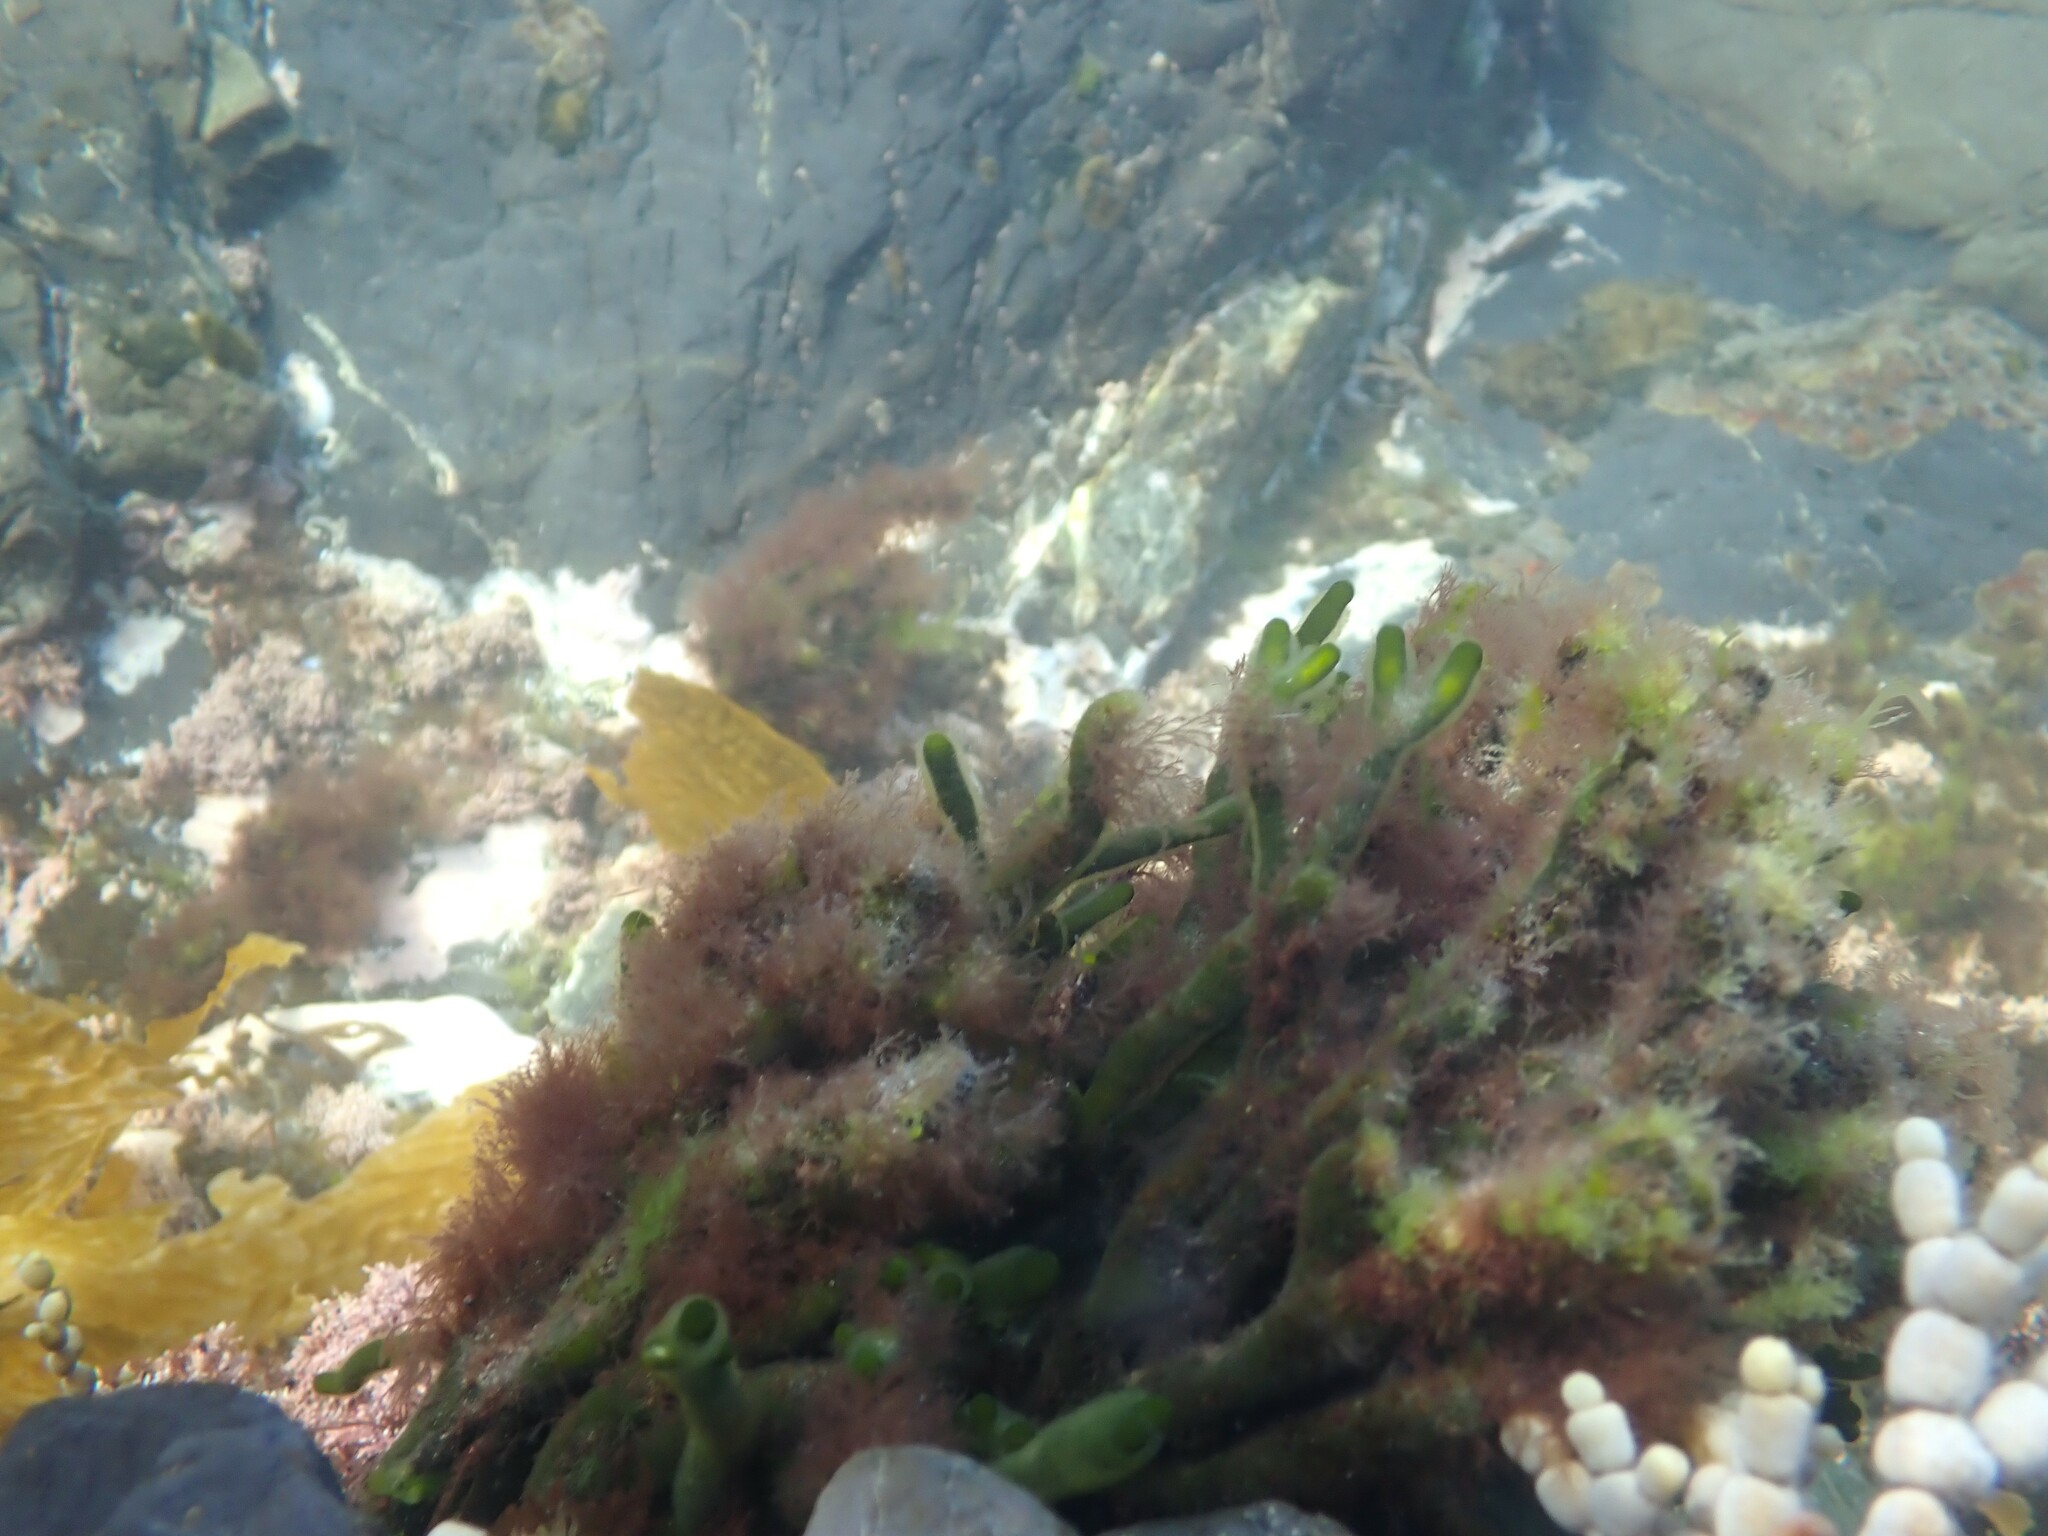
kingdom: Plantae
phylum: Chlorophyta
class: Ulvophyceae
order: Bryopsidales
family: Codiaceae
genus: Codium
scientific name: Codium fragile
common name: Dead man's fingers
